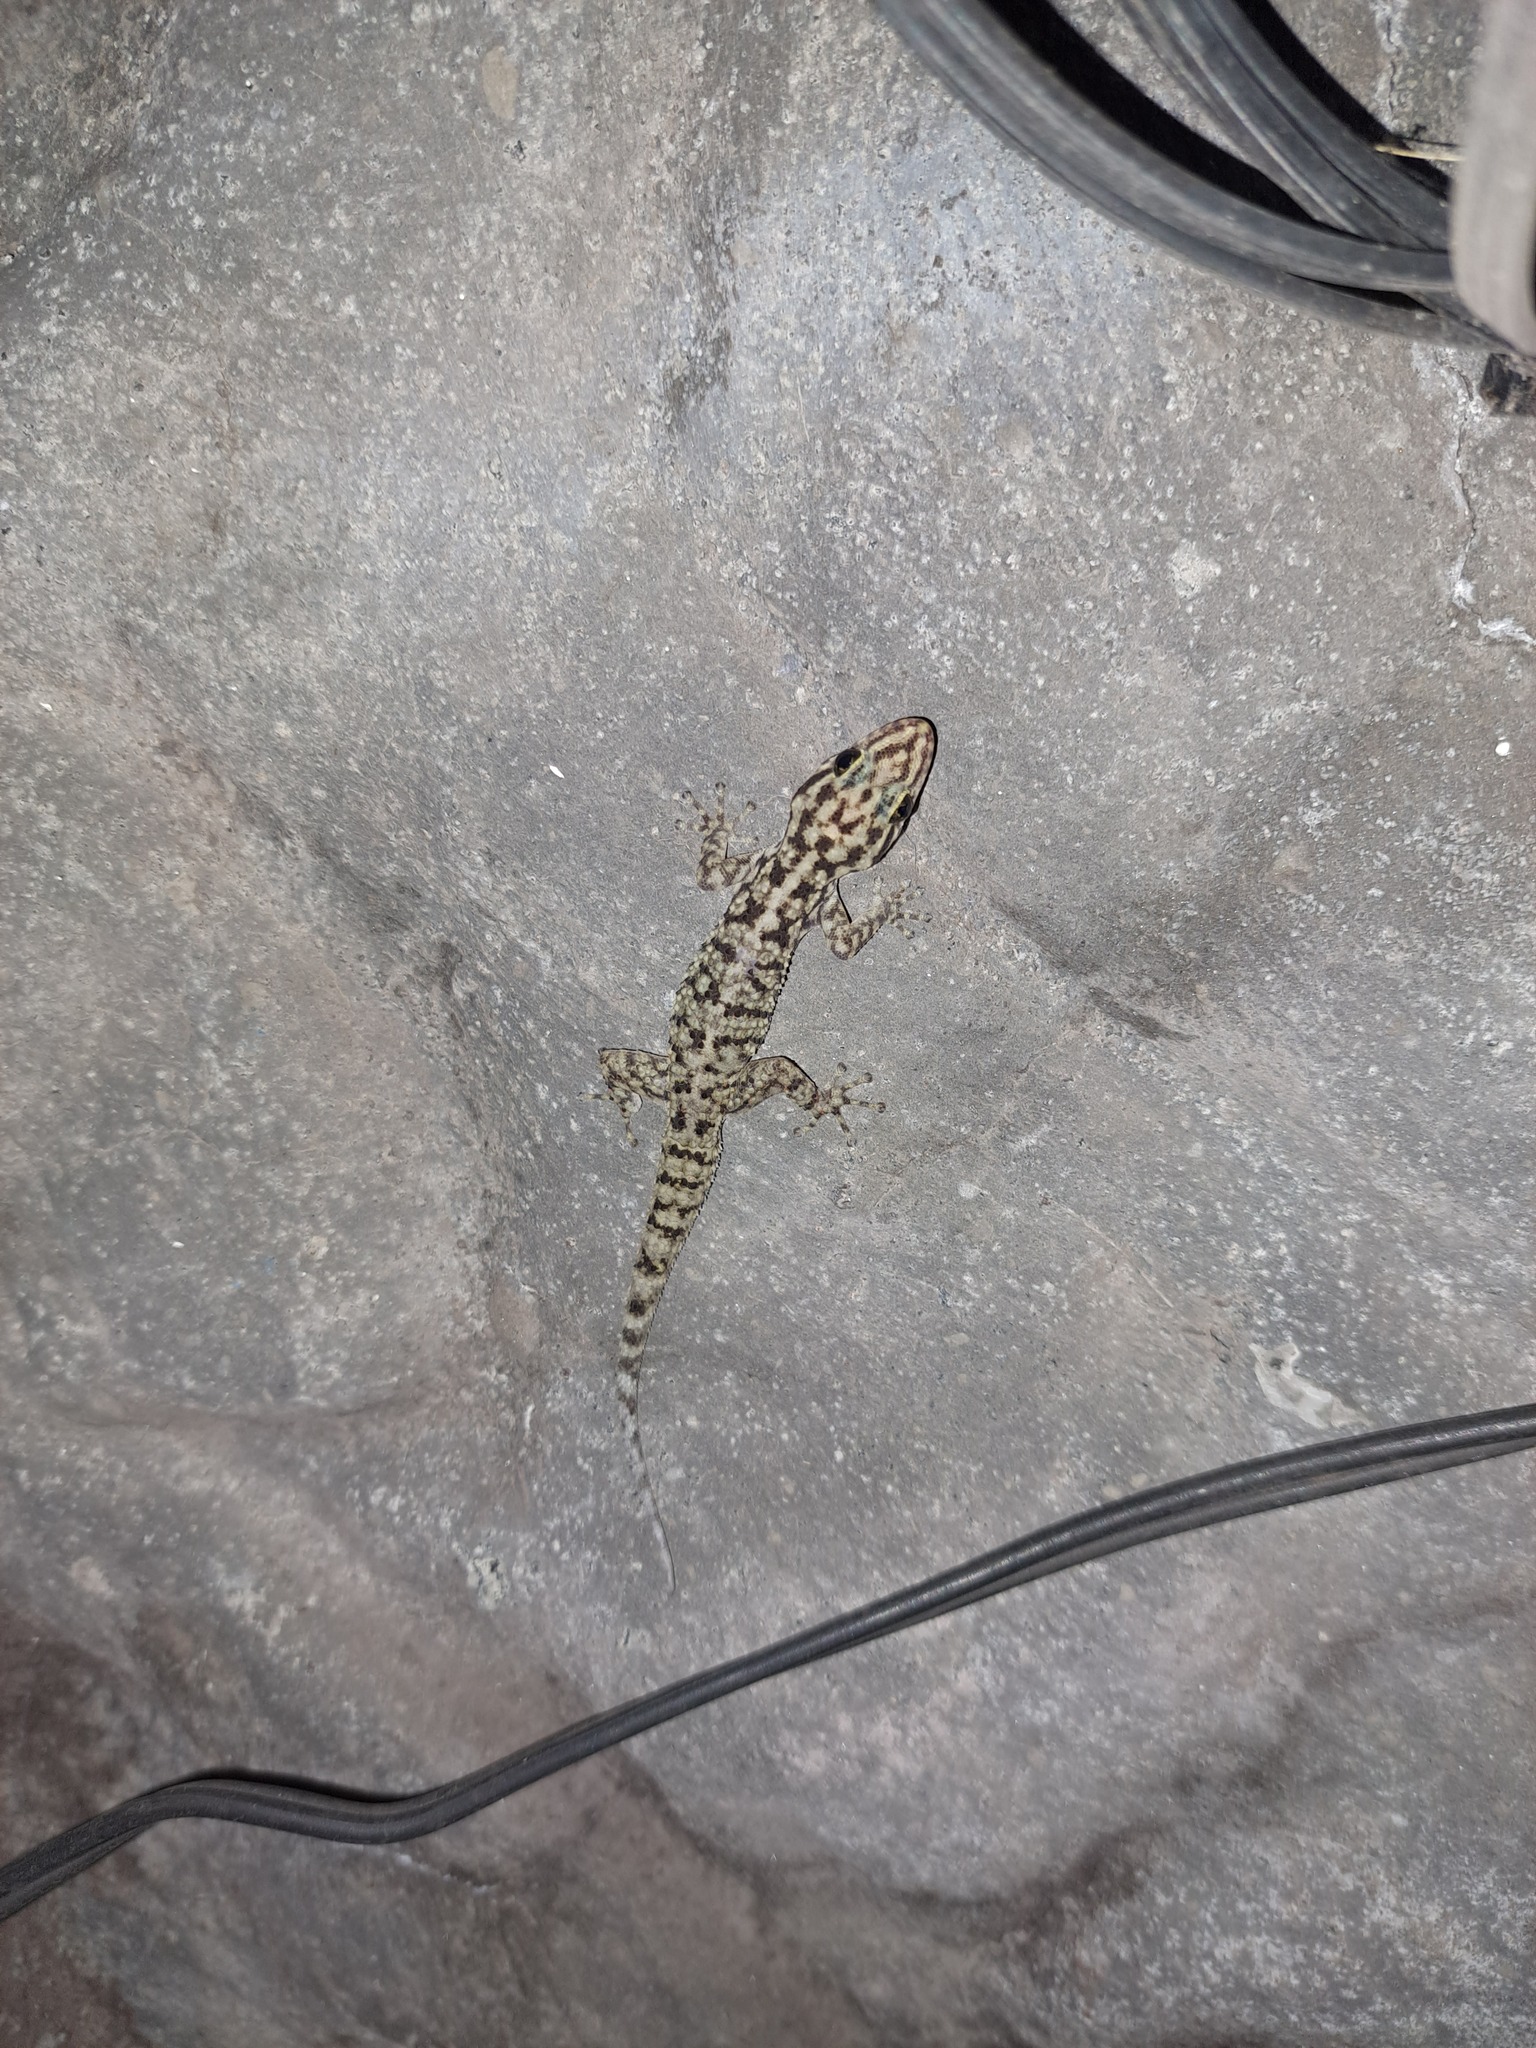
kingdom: Animalia
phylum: Chordata
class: Squamata
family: Phyllodactylidae
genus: Phyllodactylus
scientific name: Phyllodactylus darwini
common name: Darwin's leaf-toed gecko
